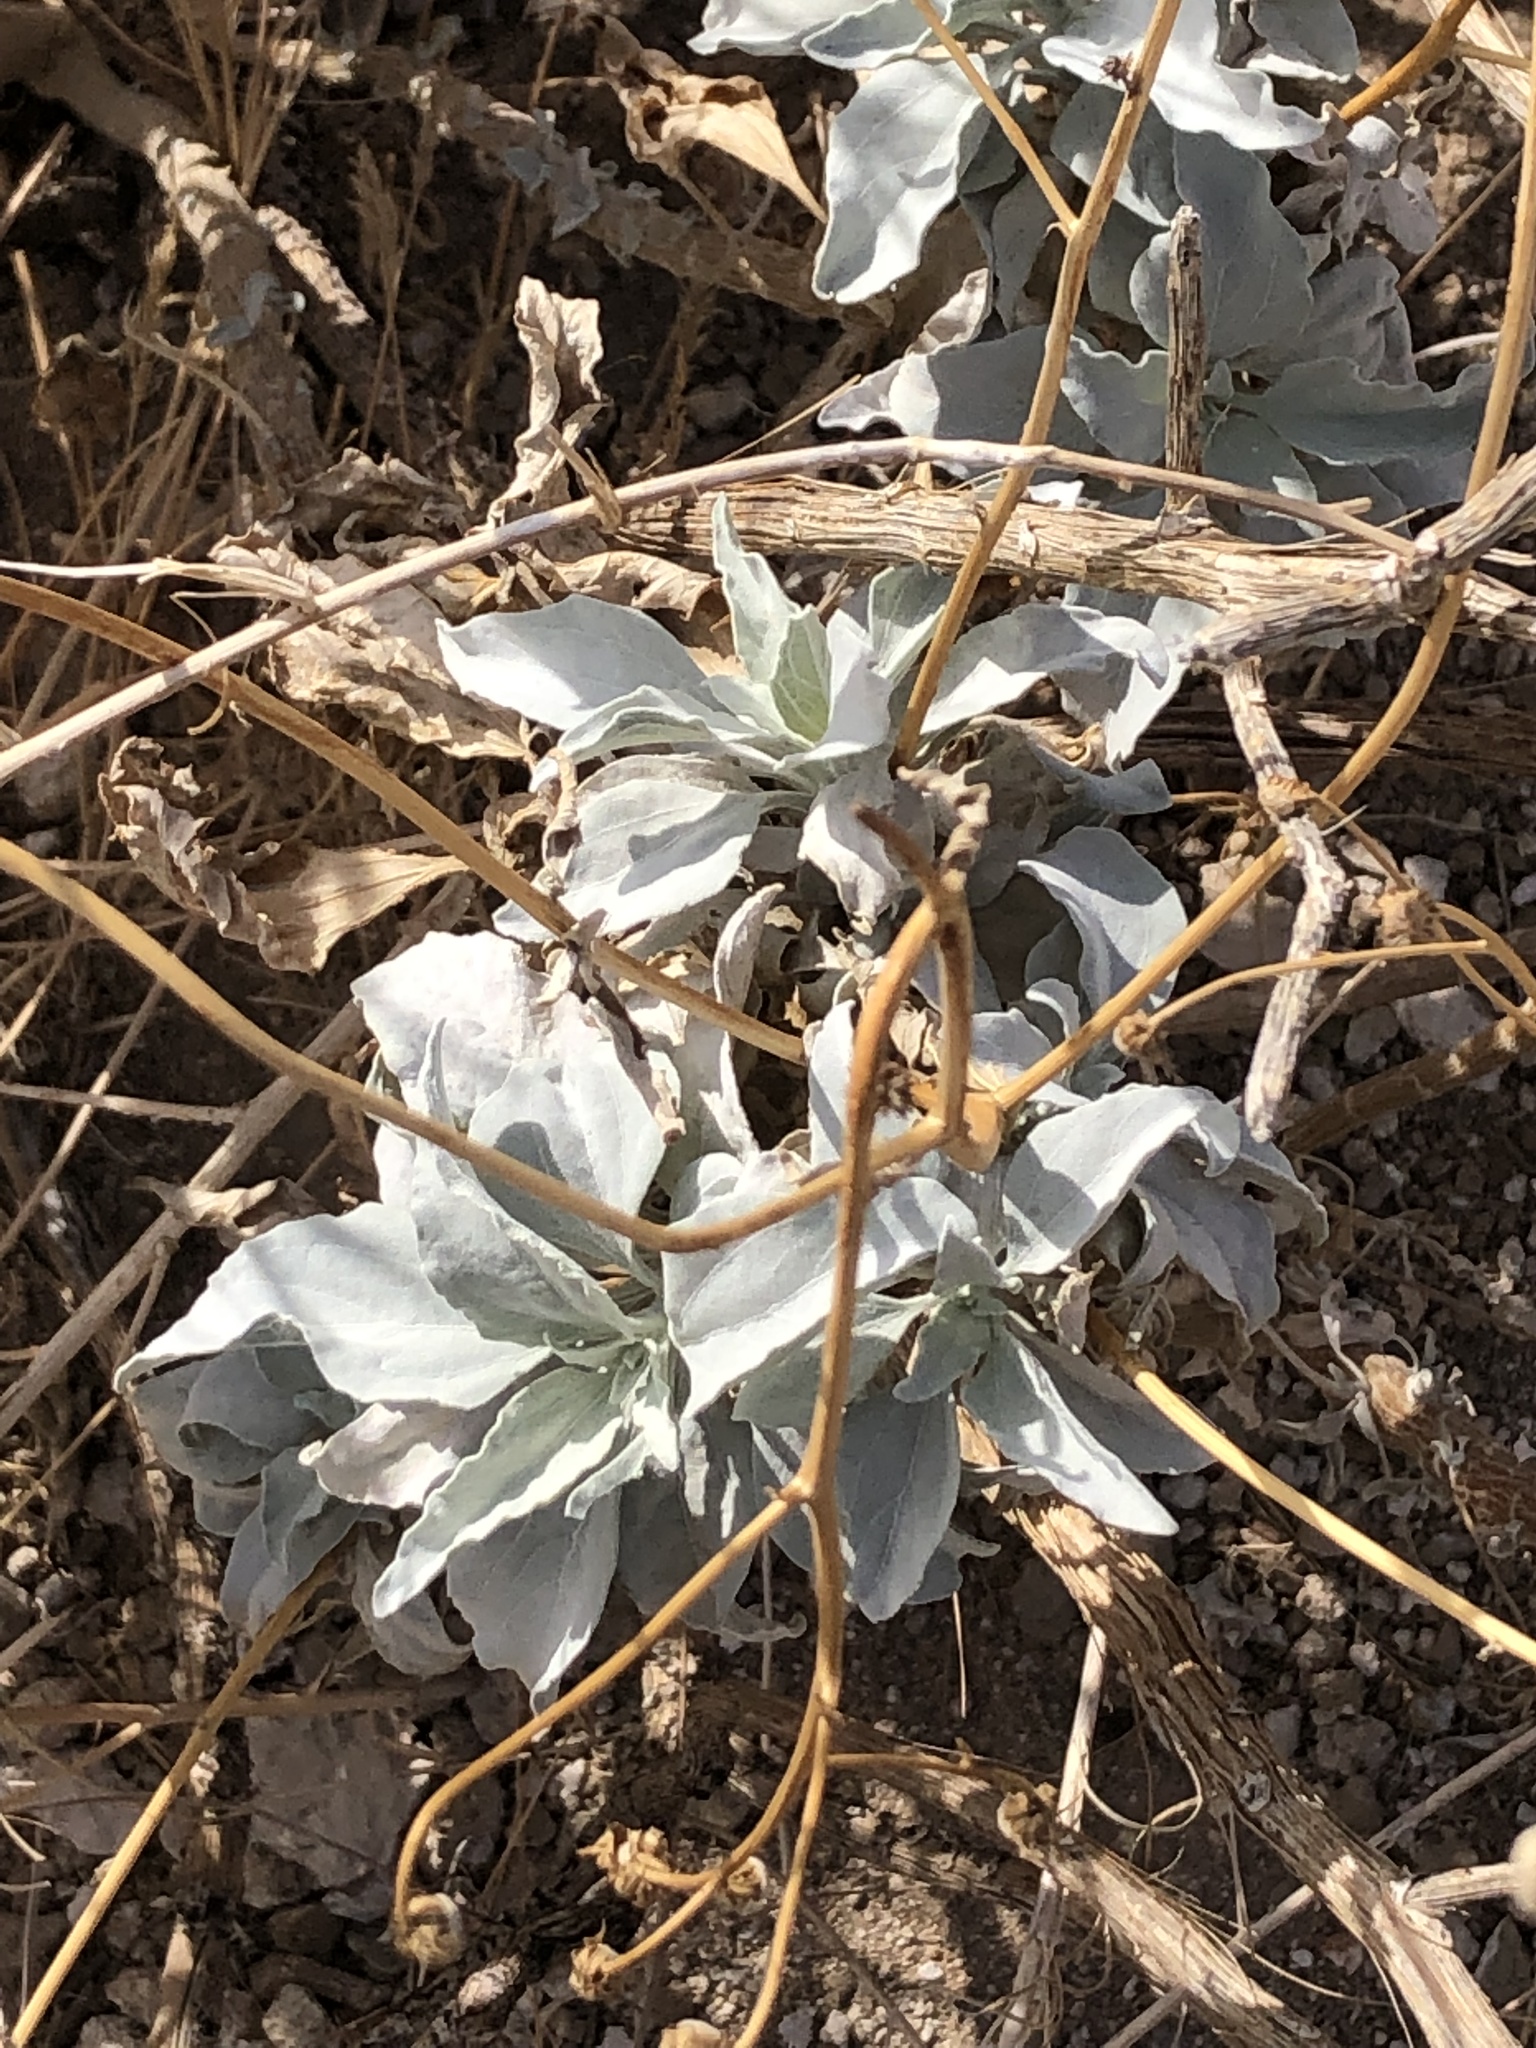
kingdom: Plantae
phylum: Tracheophyta
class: Magnoliopsida
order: Asterales
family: Asteraceae
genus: Encelia
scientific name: Encelia farinosa
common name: Brittlebush
